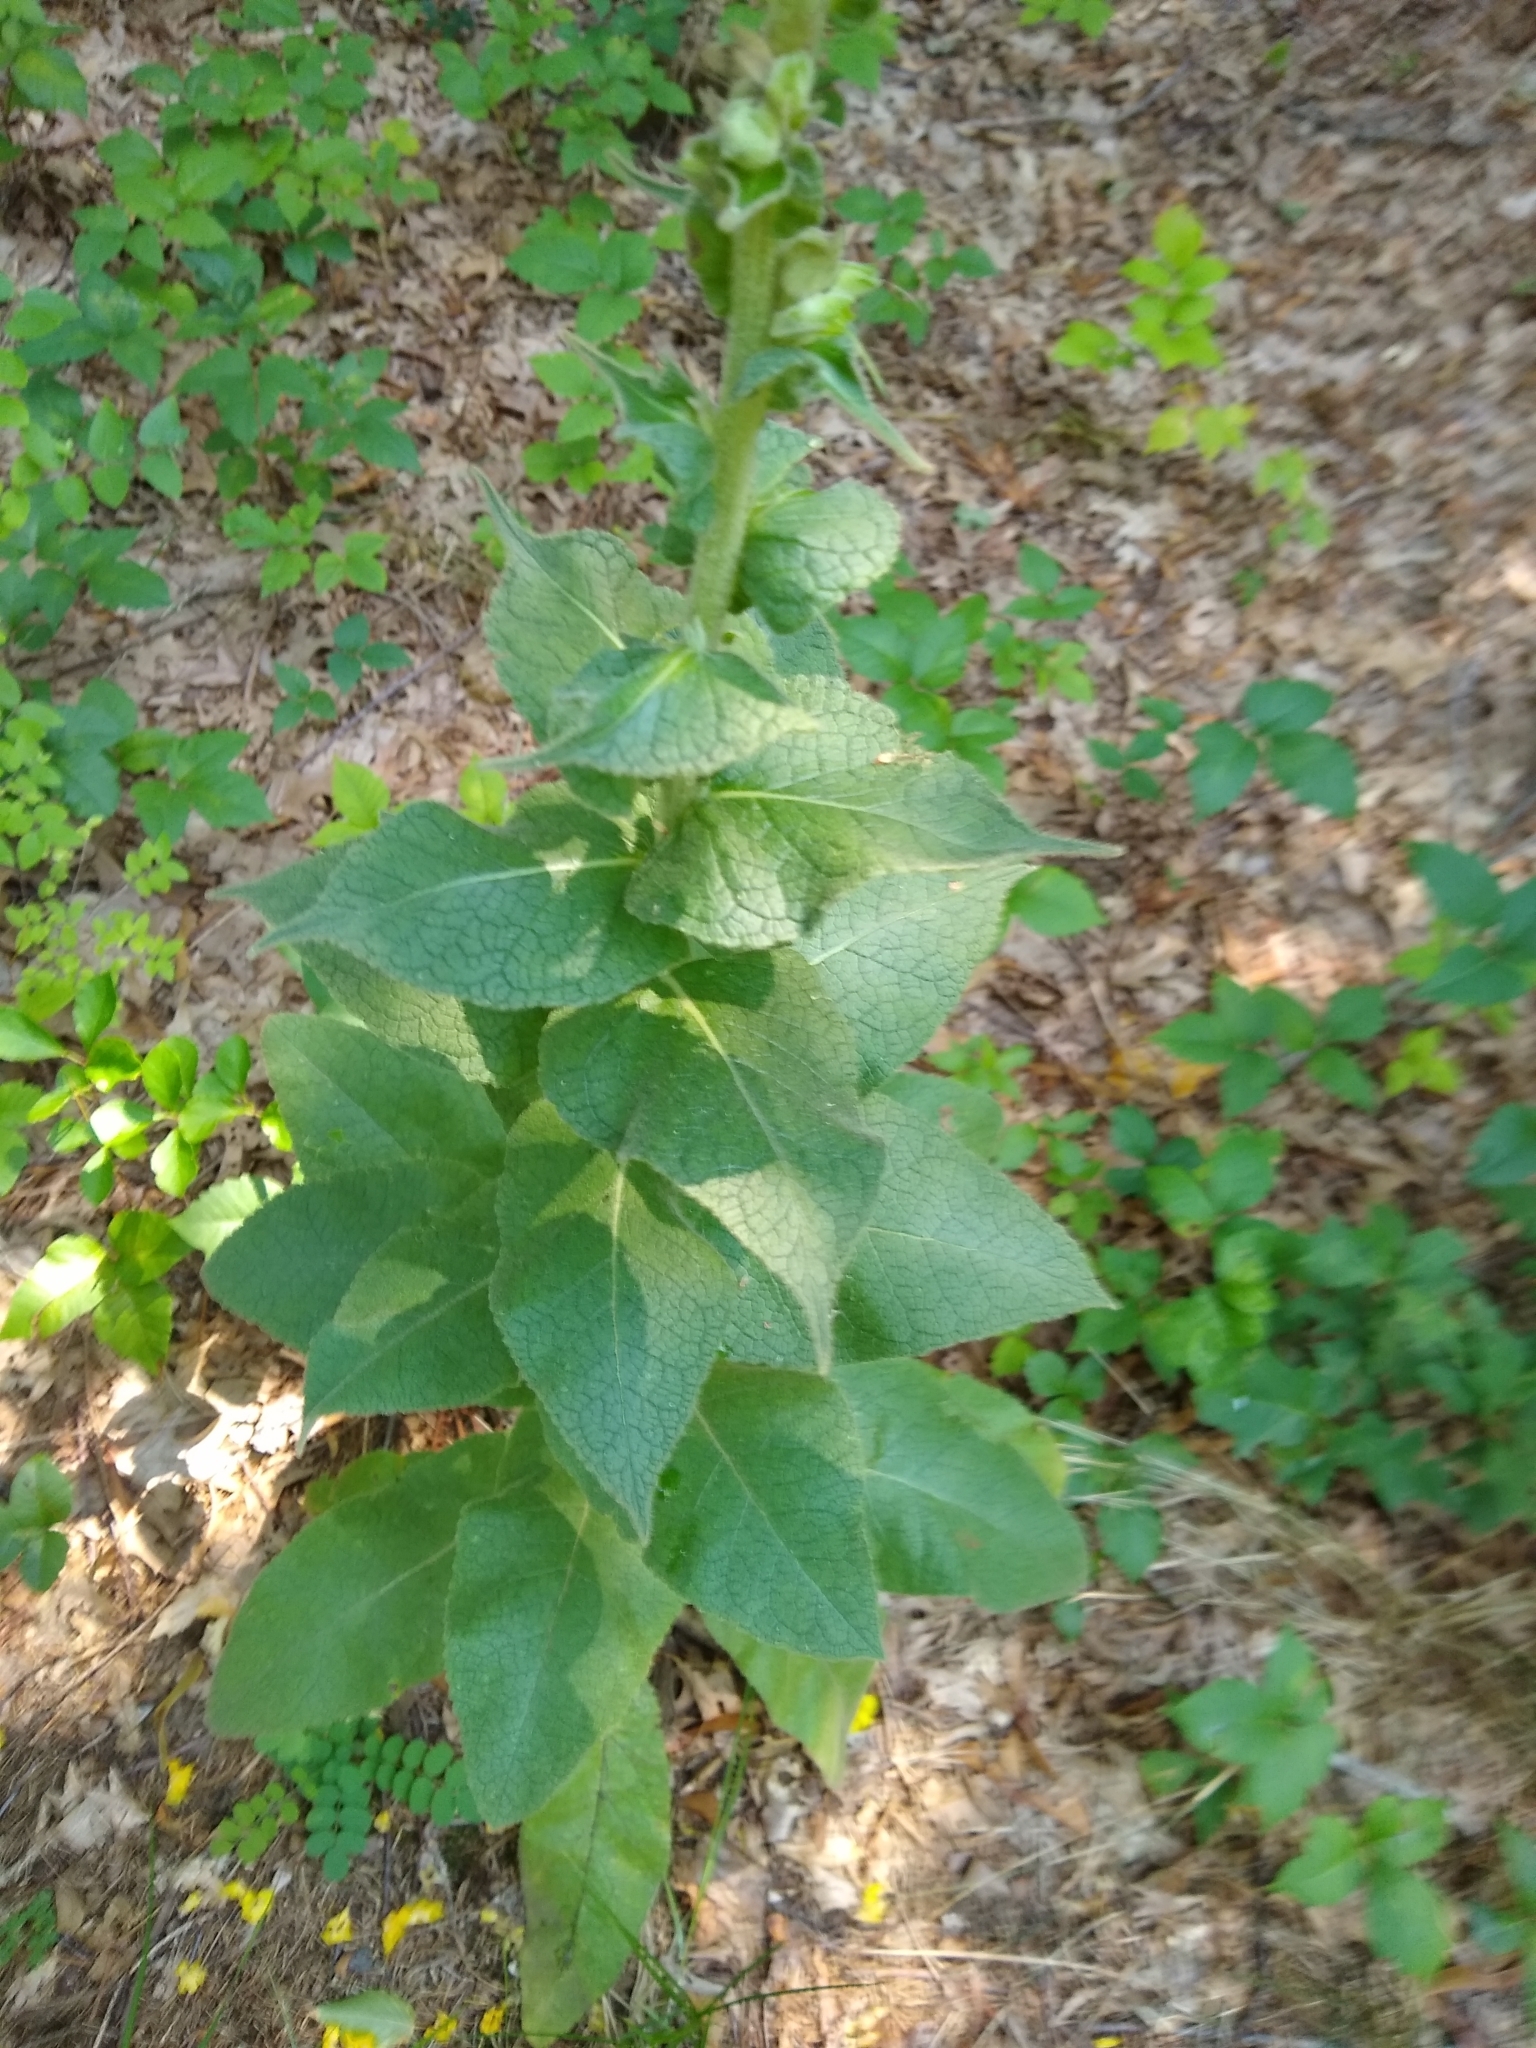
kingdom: Plantae
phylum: Tracheophyta
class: Magnoliopsida
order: Lamiales
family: Scrophulariaceae
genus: Verbascum
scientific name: Verbascum phlomoides
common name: Orange mullein
